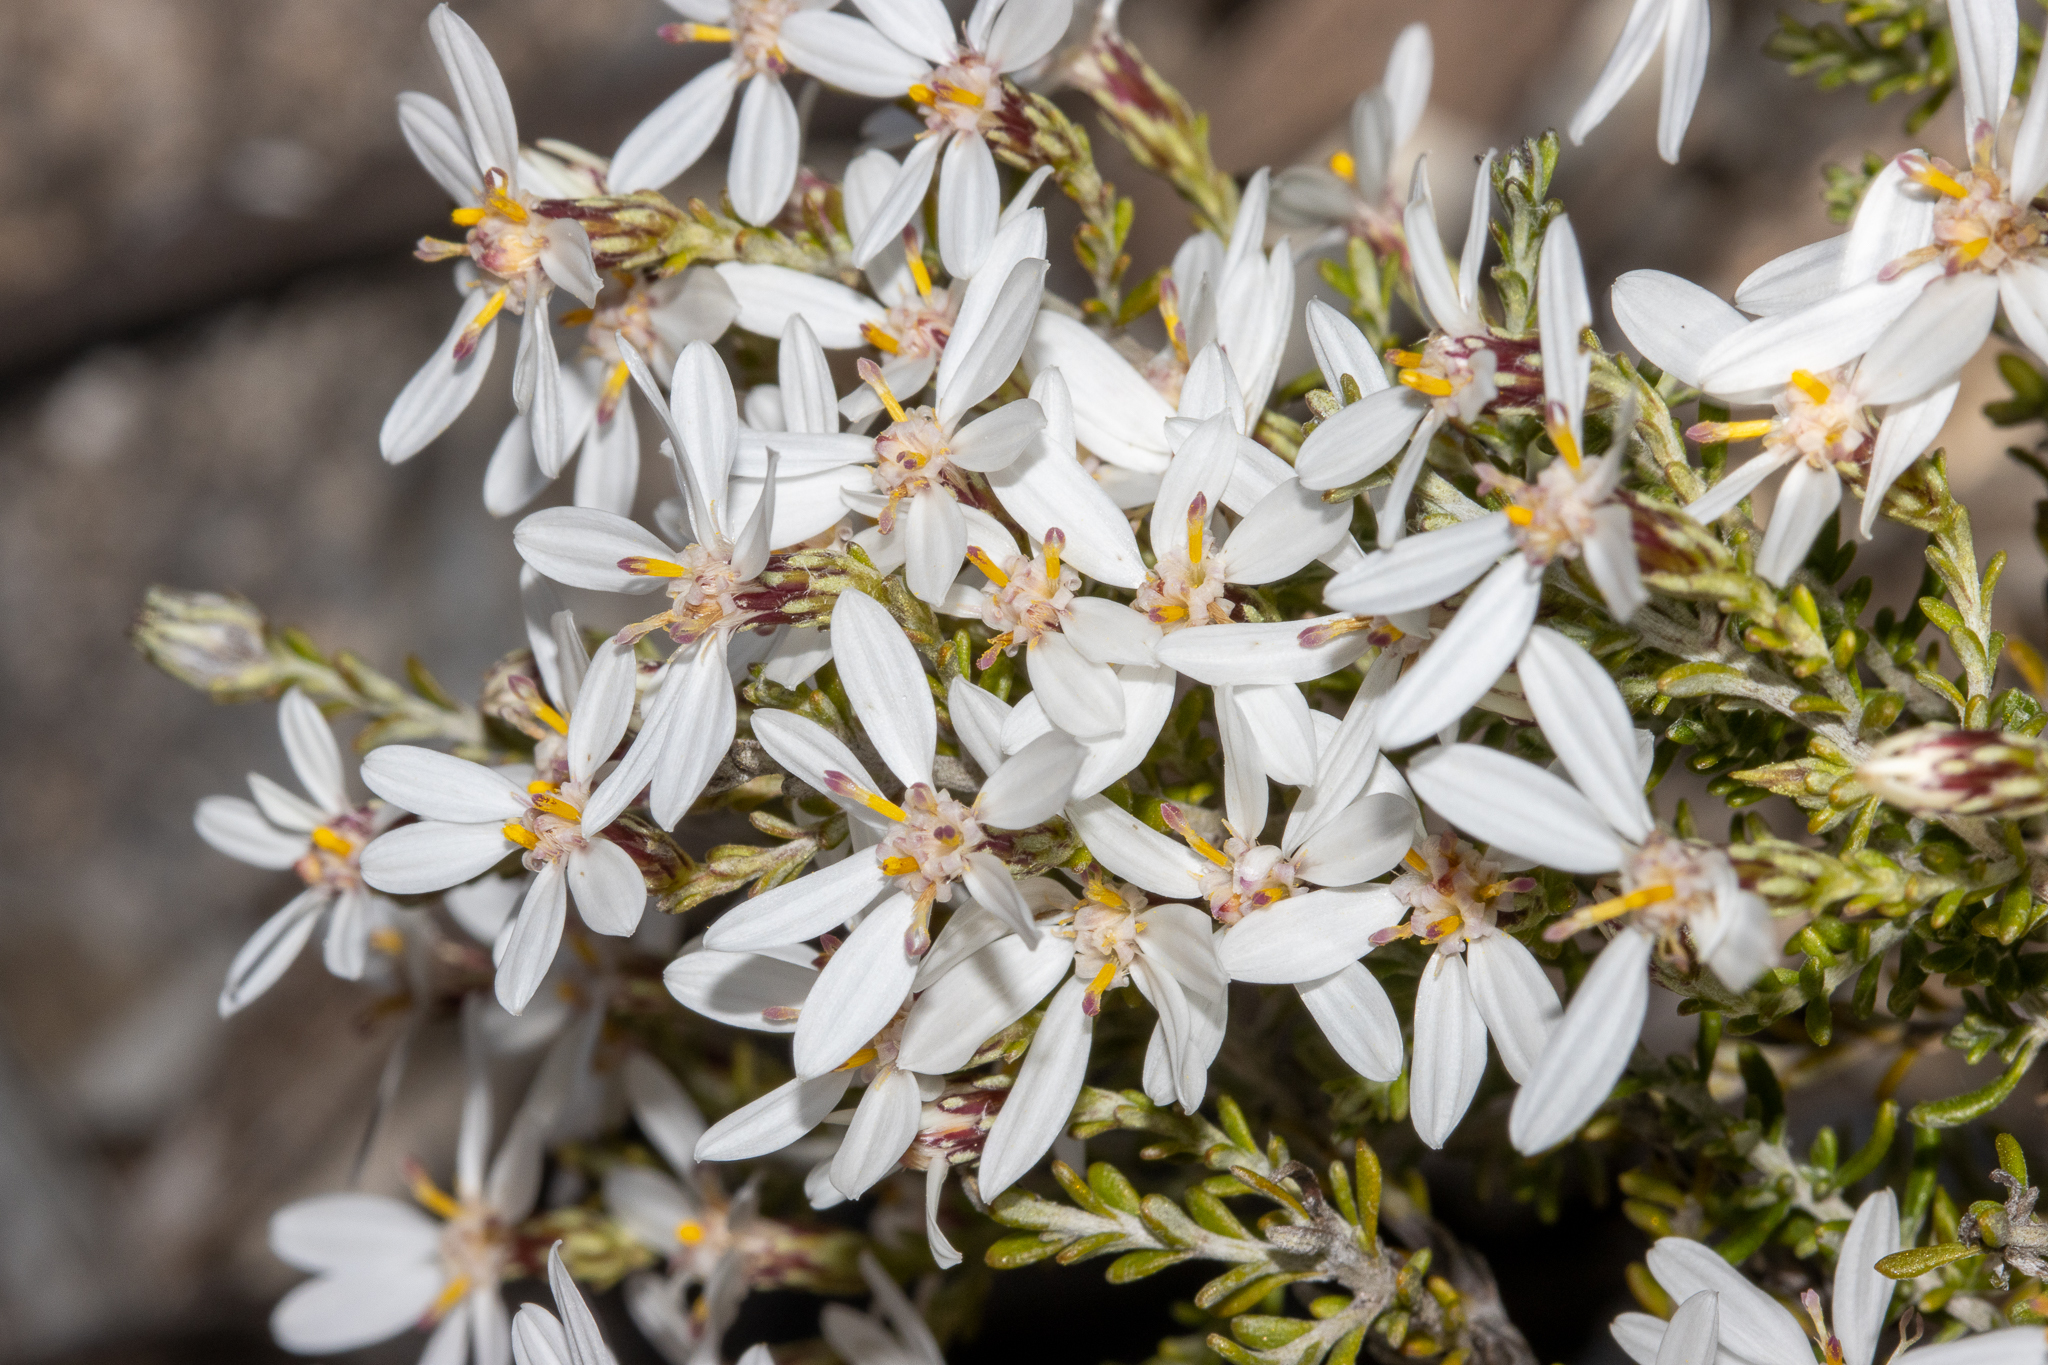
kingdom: Plantae
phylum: Tracheophyta
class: Magnoliopsida
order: Asterales
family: Asteraceae
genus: Olearia
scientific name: Olearia brachyphylla
